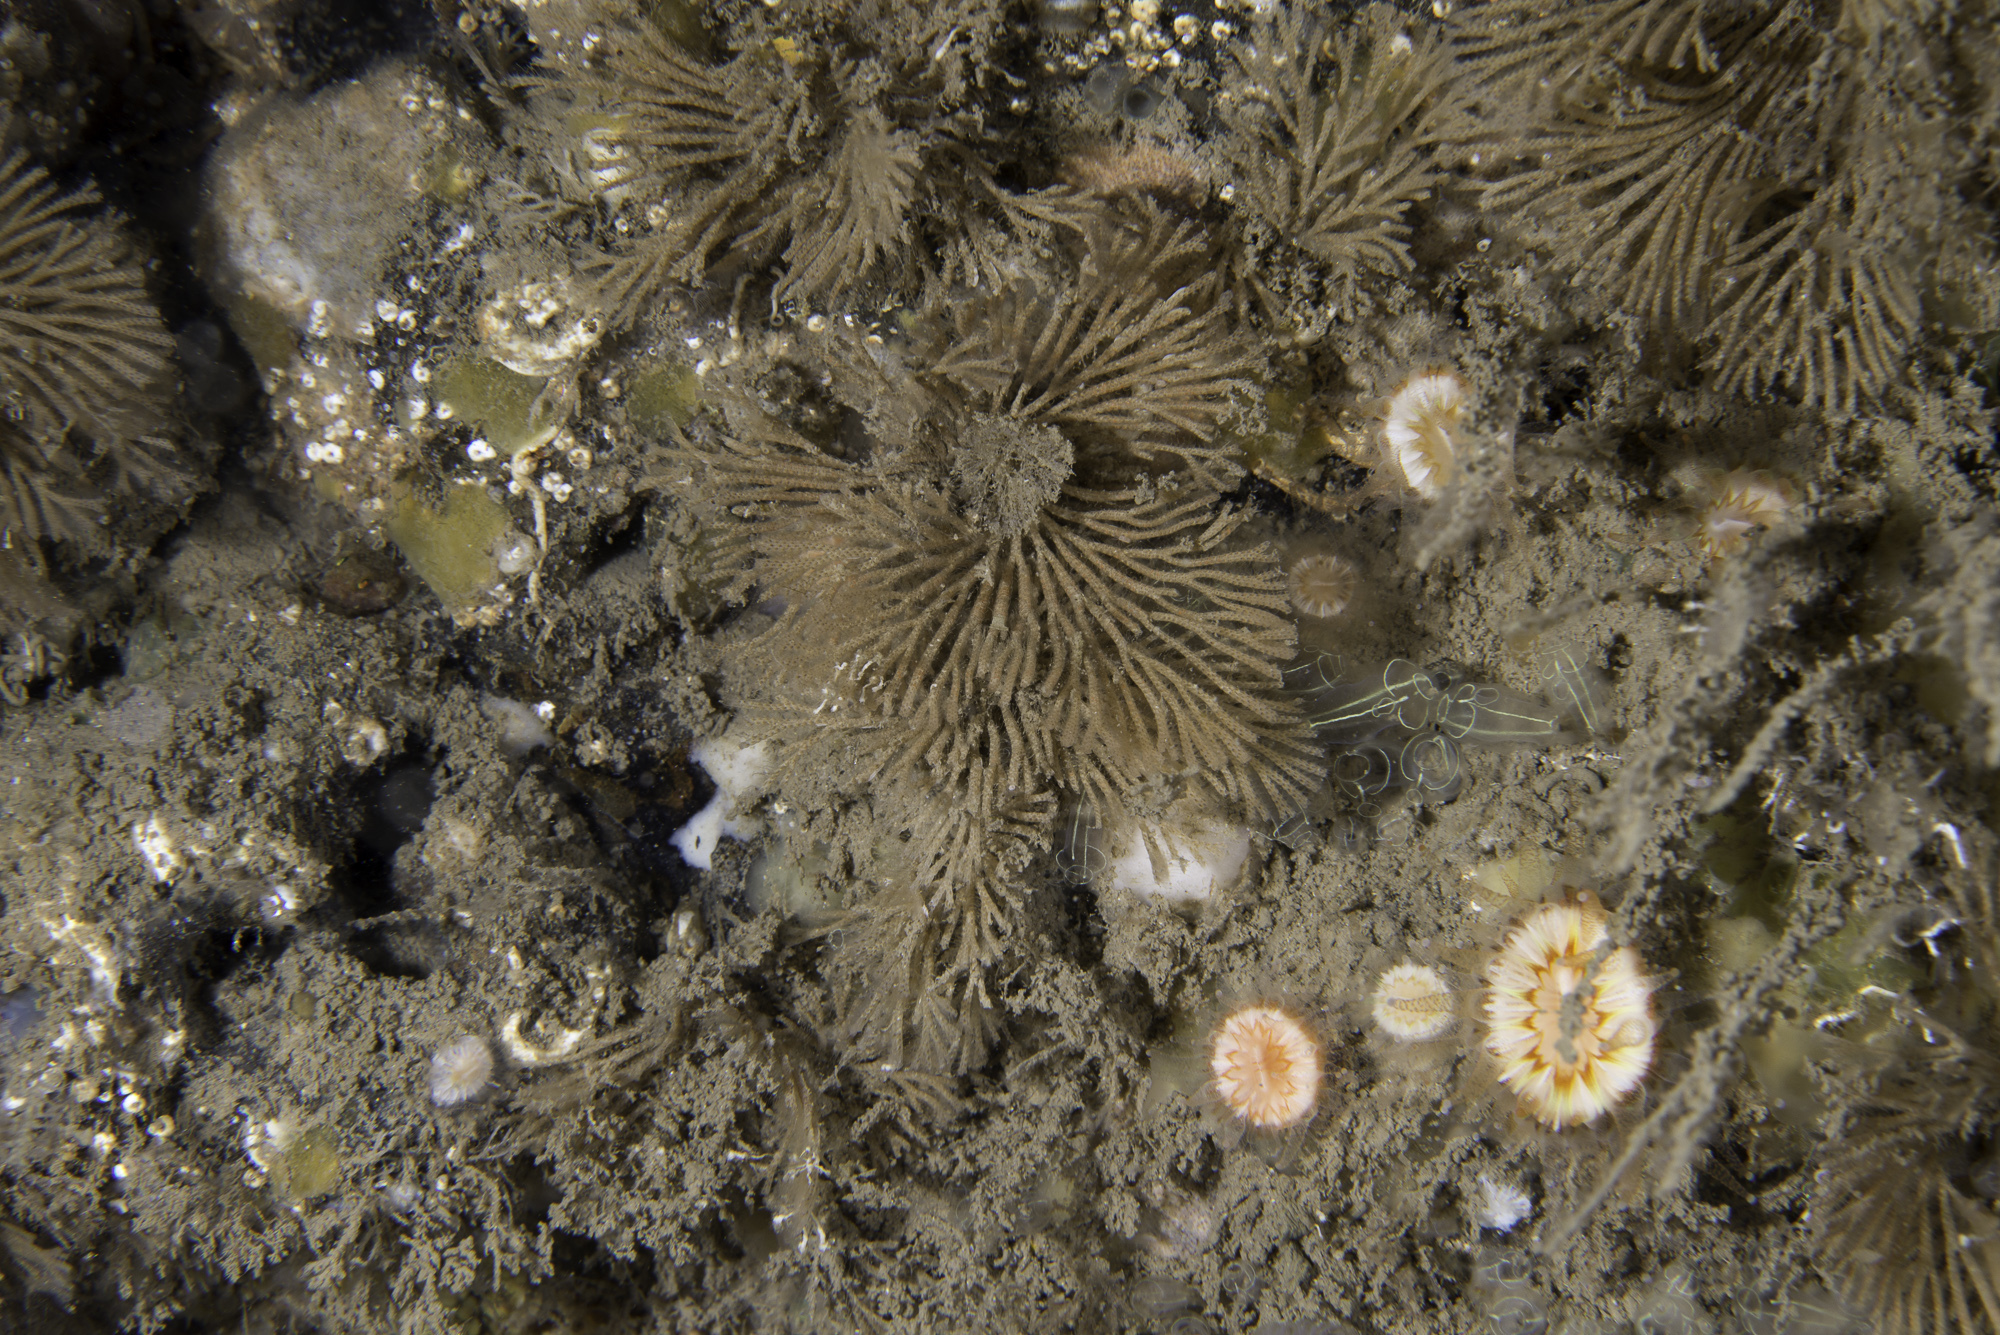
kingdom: Animalia
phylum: Bryozoa
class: Gymnolaemata
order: Cheilostomatida
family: Candidae
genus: Caberea
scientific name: Caberea ellisii
